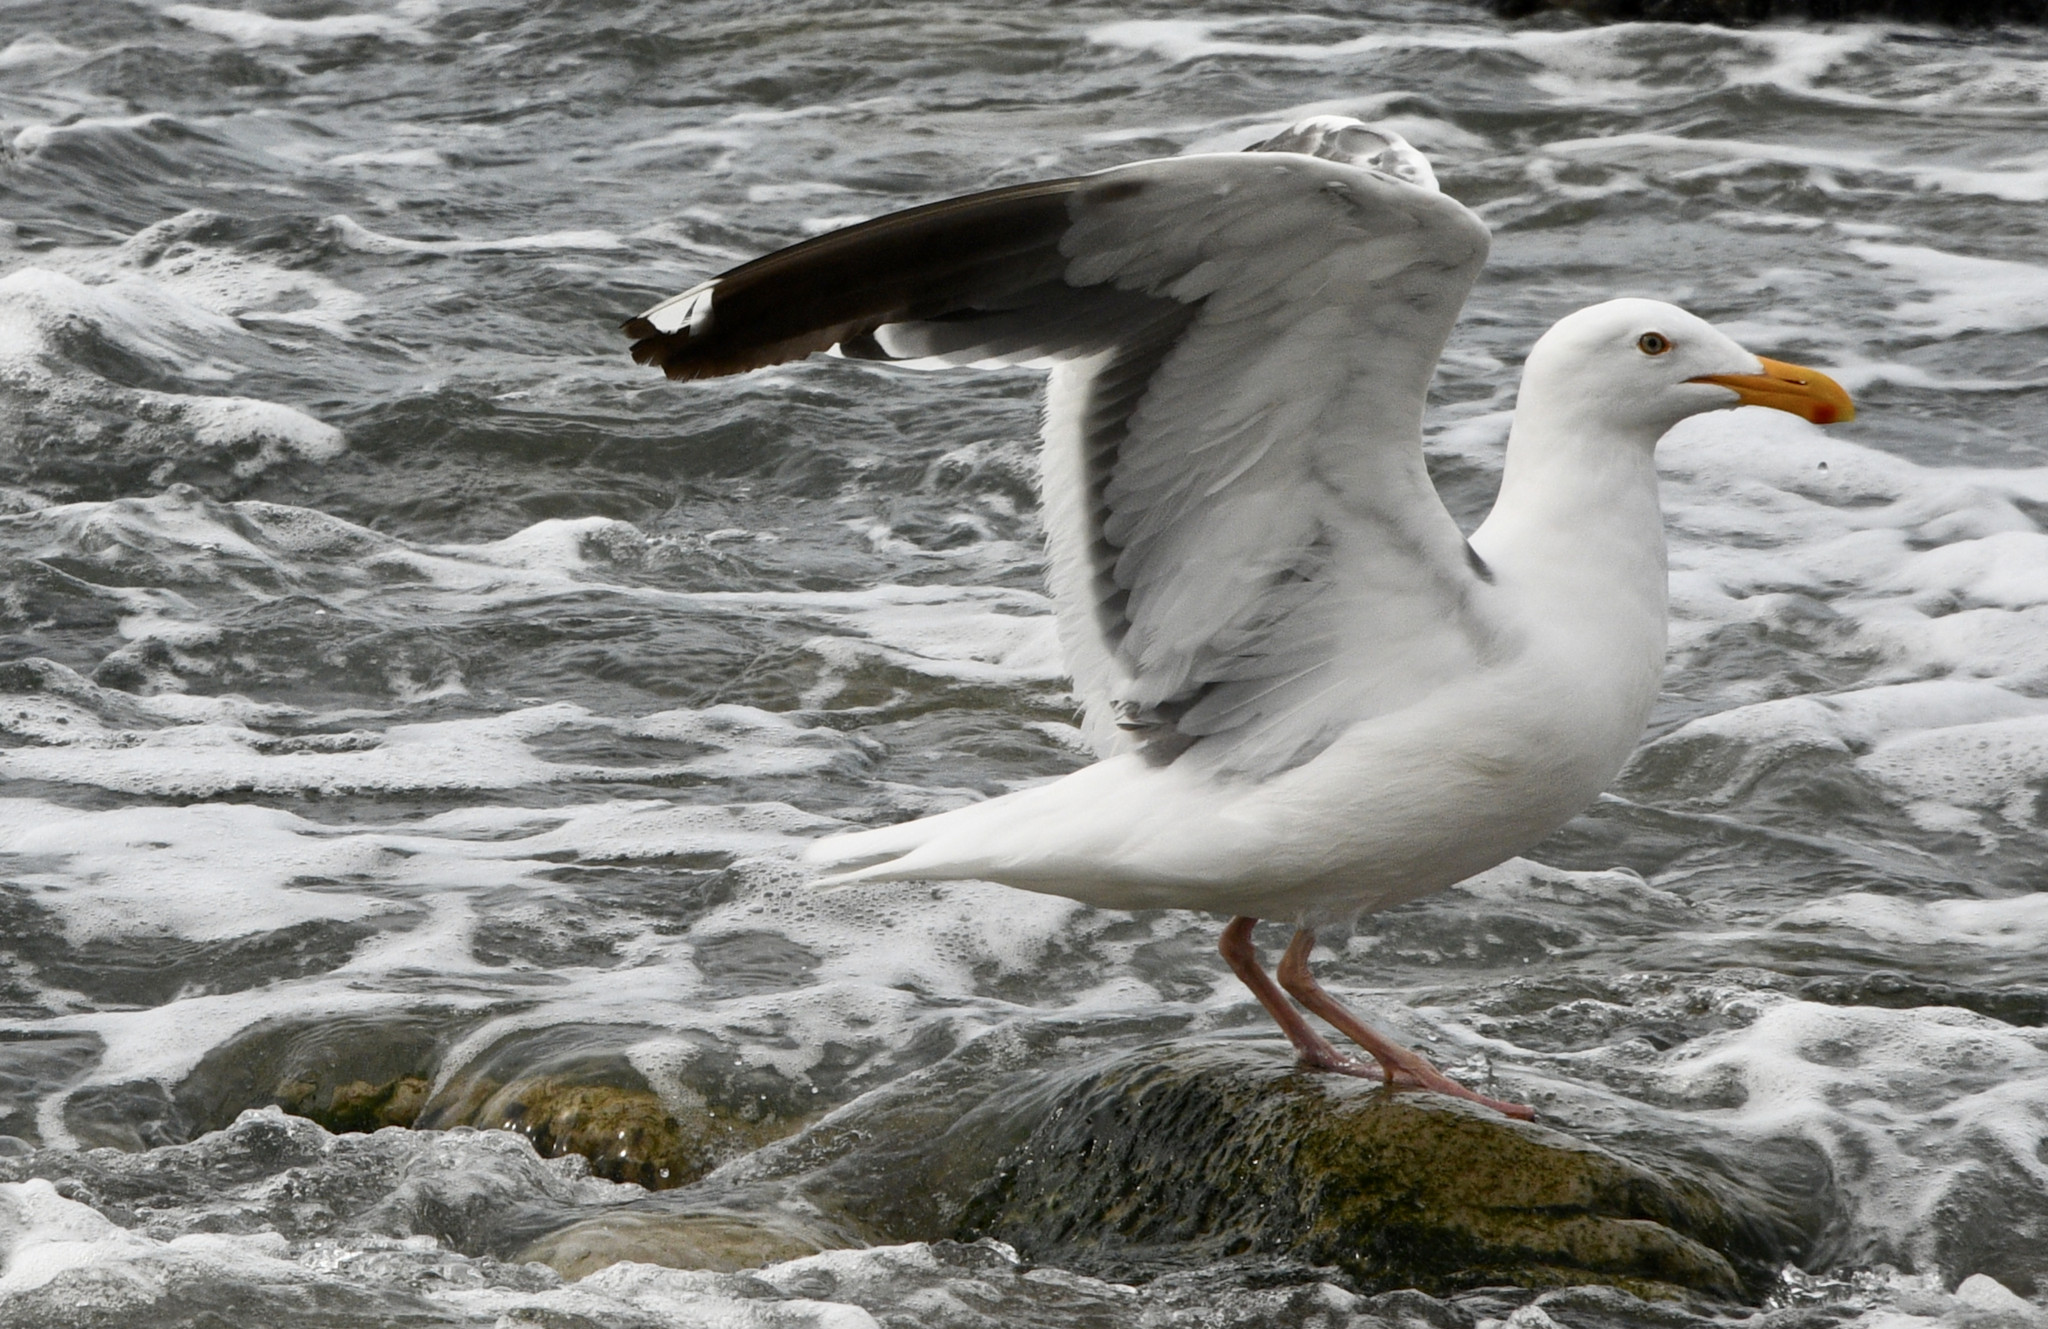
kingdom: Animalia
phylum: Chordata
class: Aves
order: Charadriiformes
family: Laridae
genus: Larus
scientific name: Larus occidentalis
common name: Western gull
